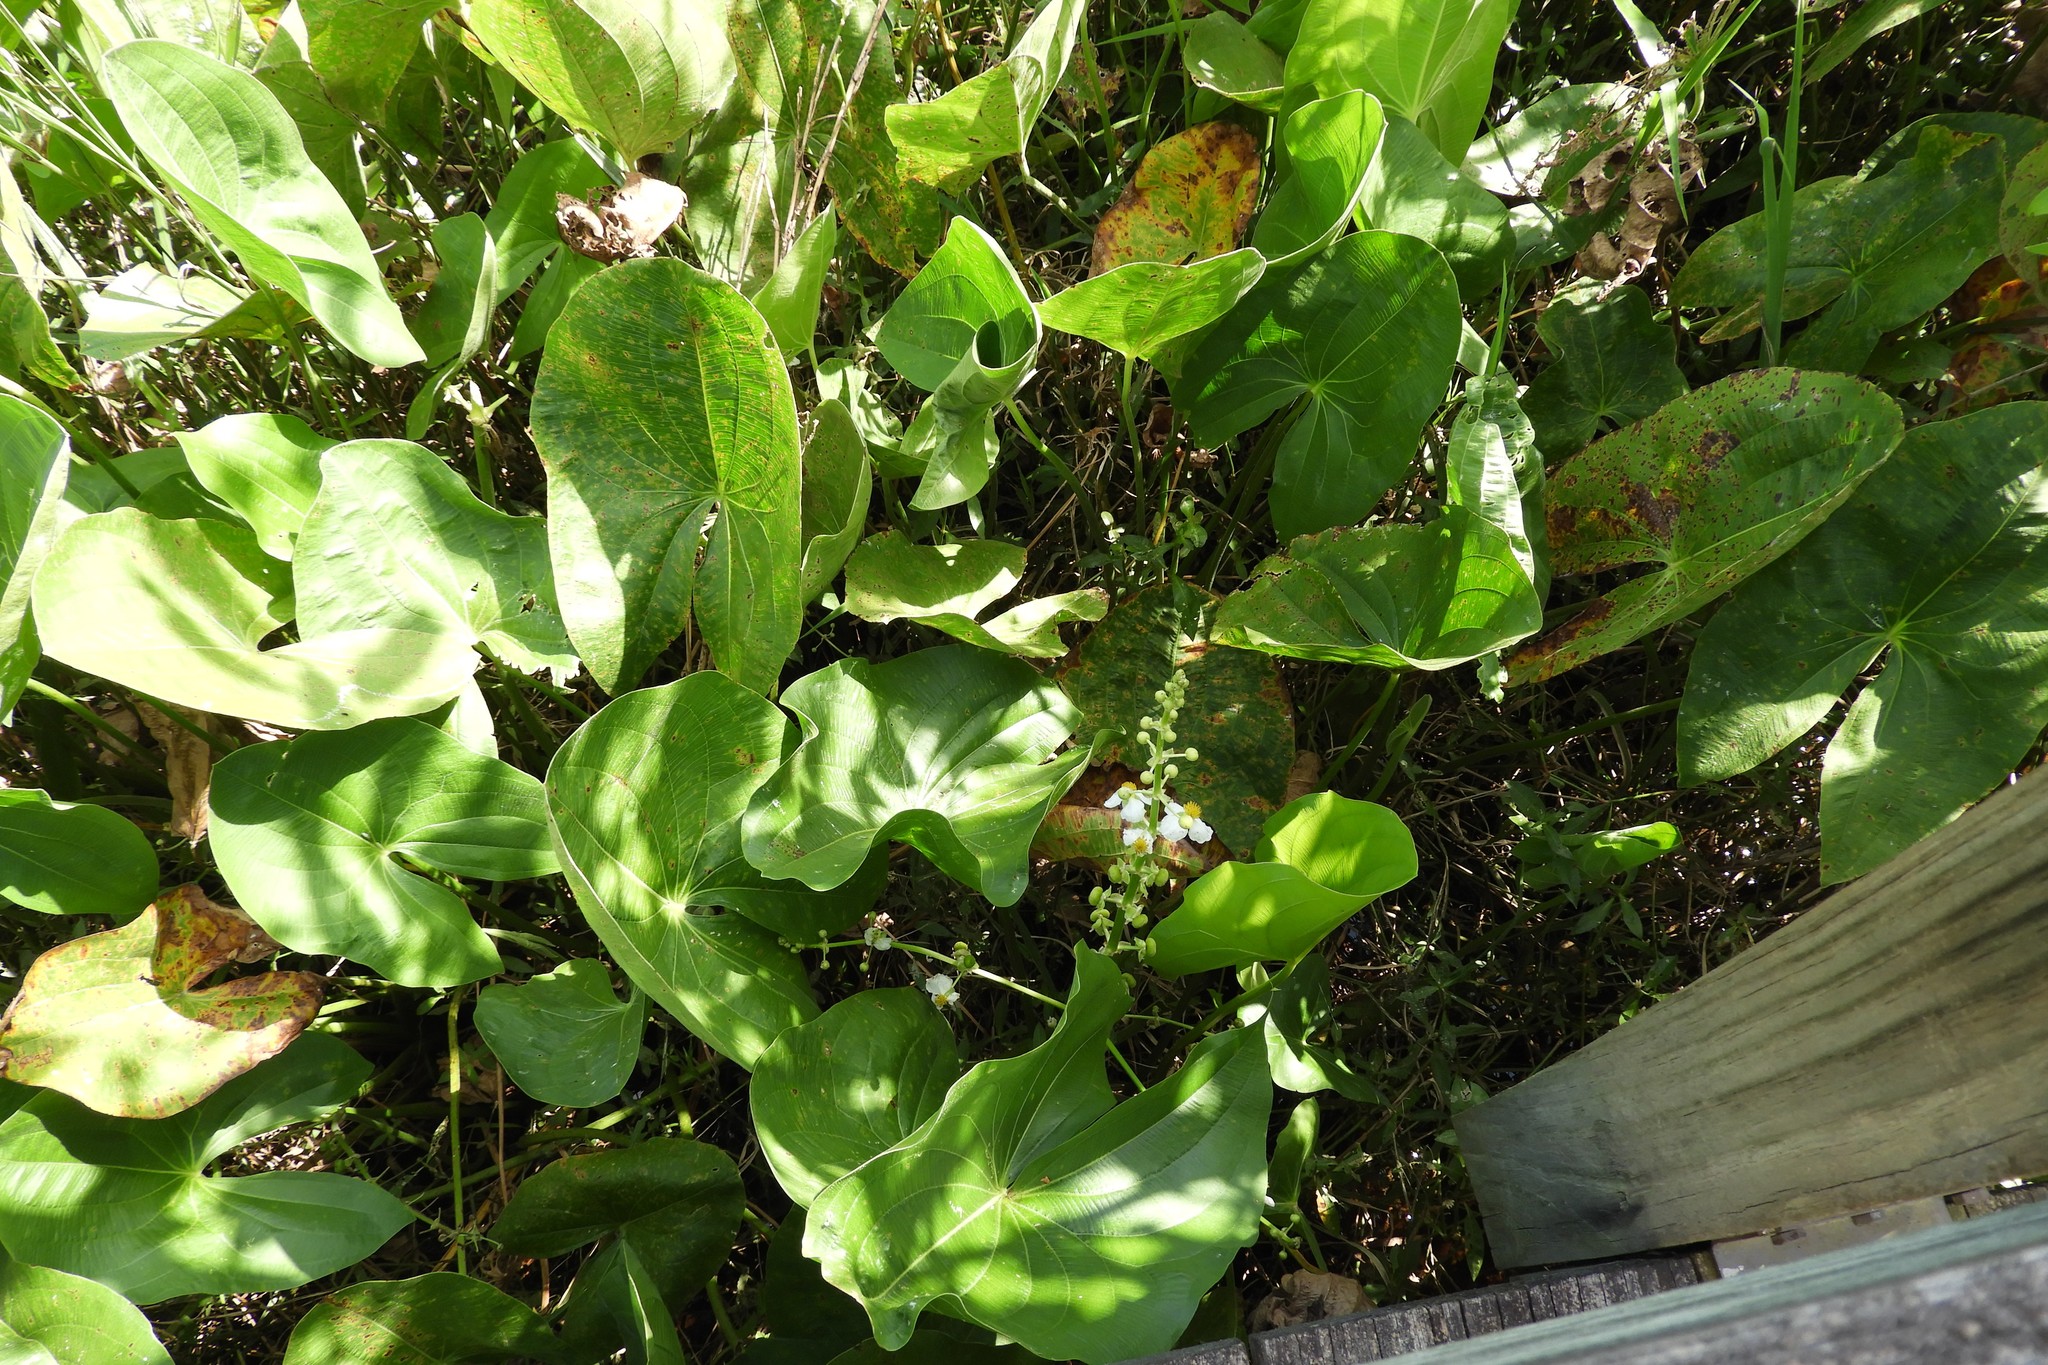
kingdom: Plantae
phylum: Tracheophyta
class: Liliopsida
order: Alismatales
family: Alismataceae
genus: Sagittaria
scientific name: Sagittaria latifolia
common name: Duck-potato
